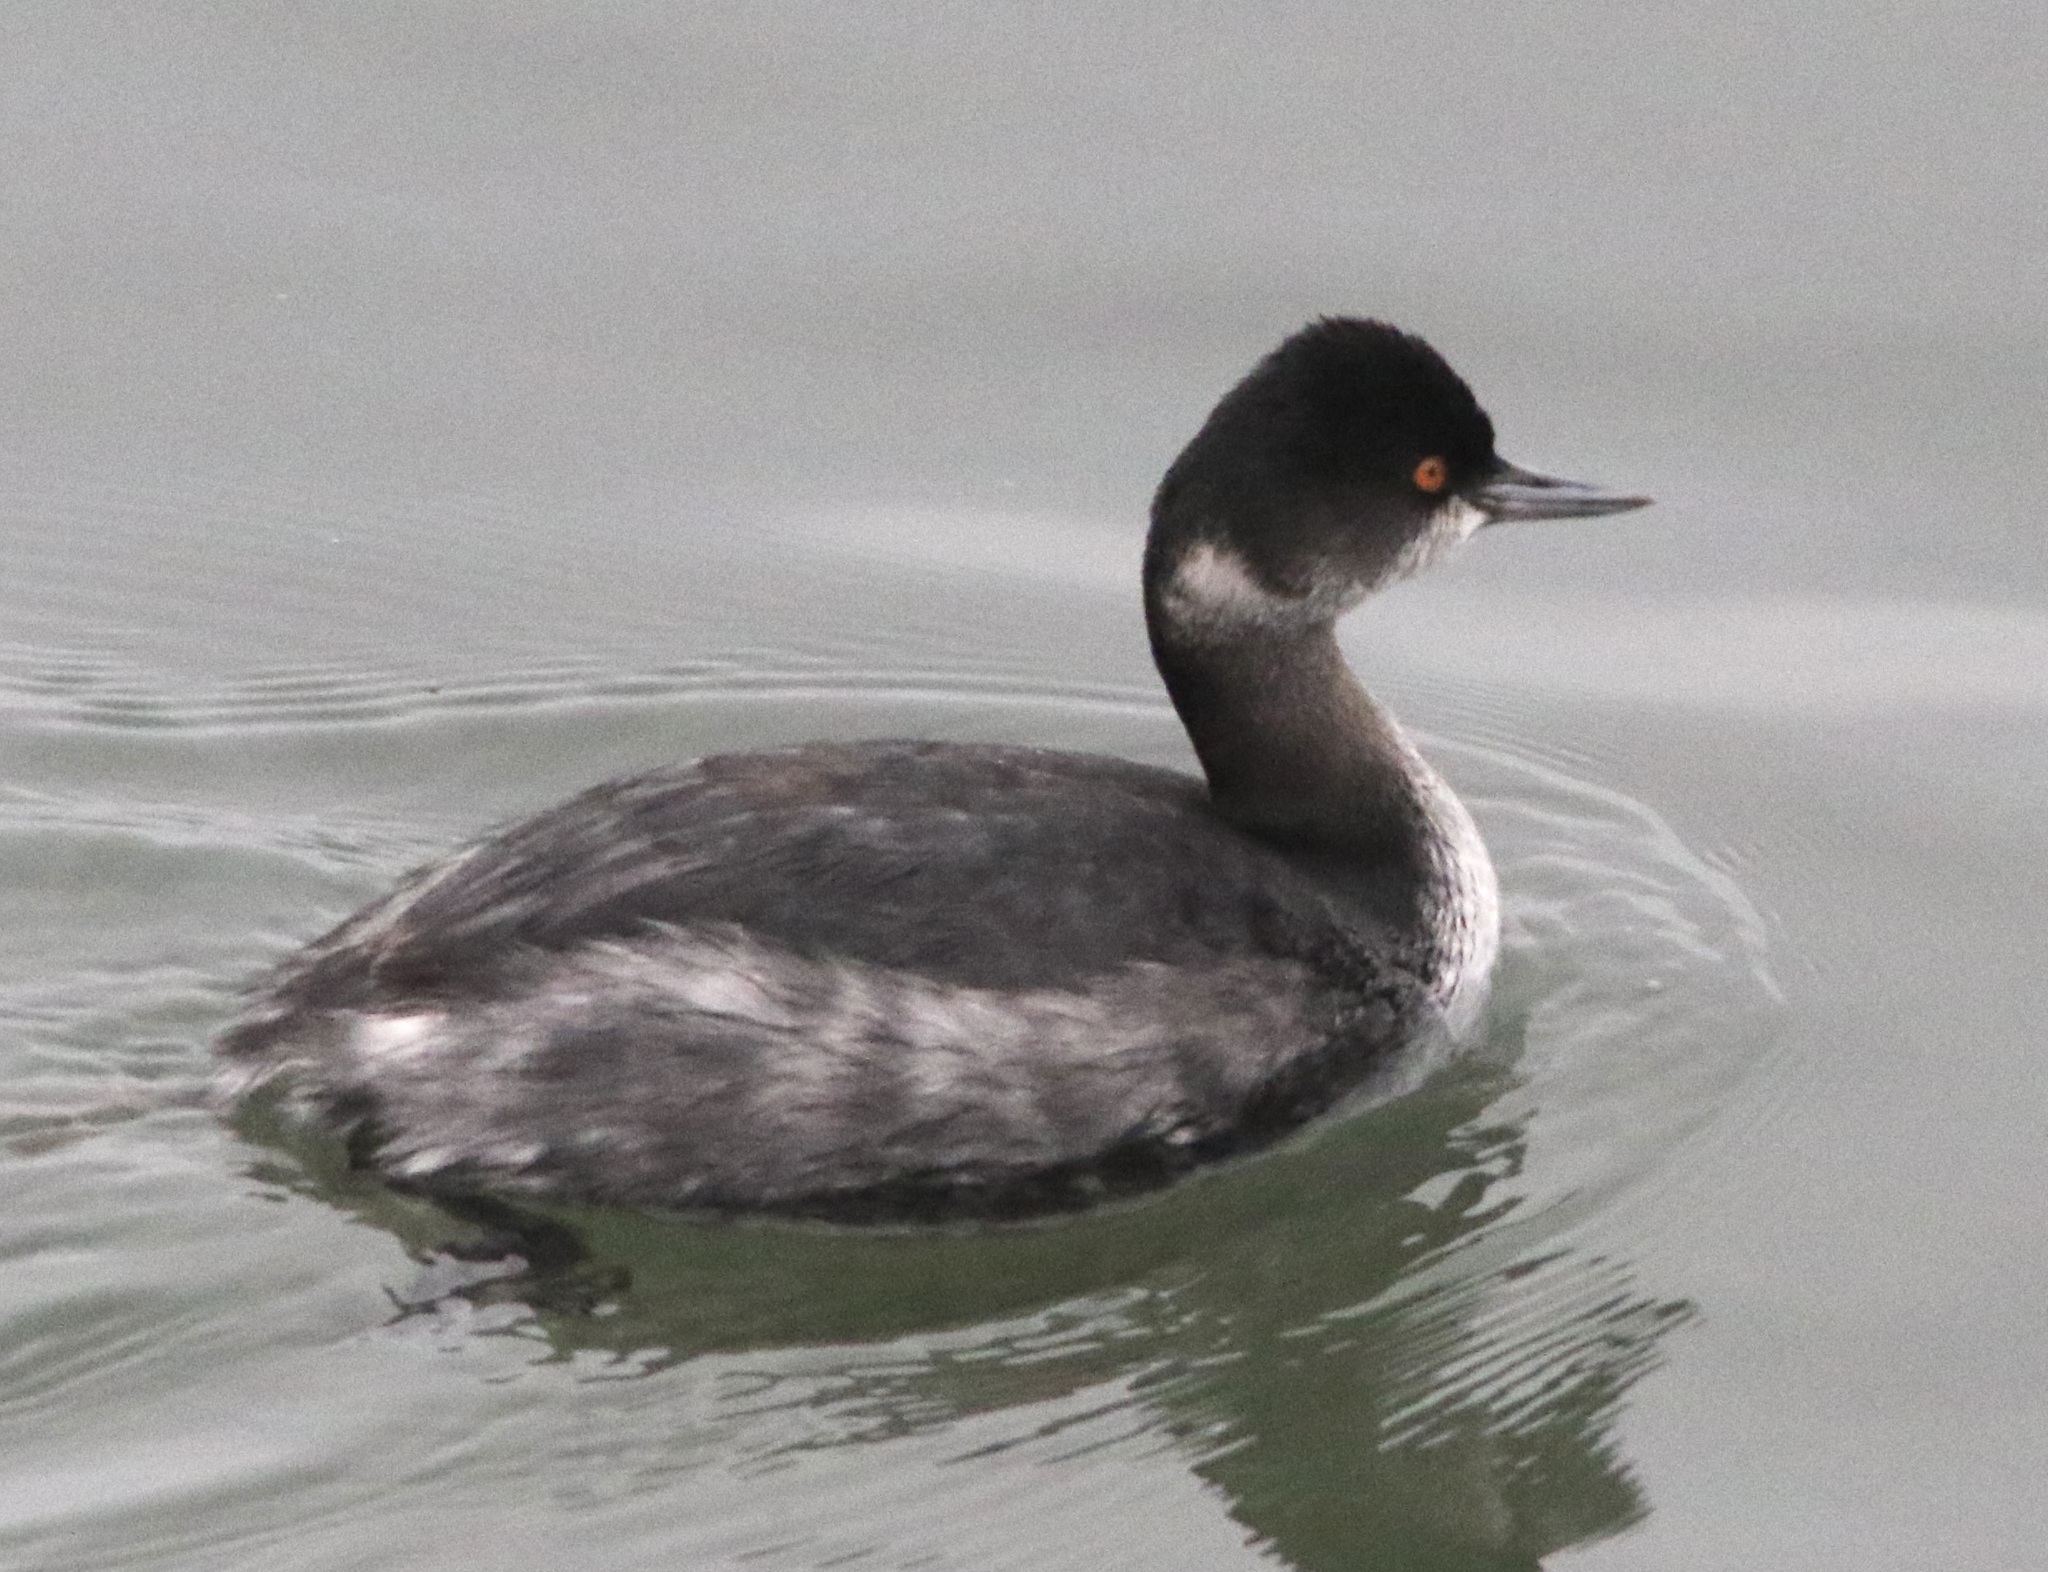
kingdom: Animalia
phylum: Chordata
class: Aves
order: Podicipediformes
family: Podicipedidae
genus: Podiceps
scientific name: Podiceps nigricollis
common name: Black-necked grebe
